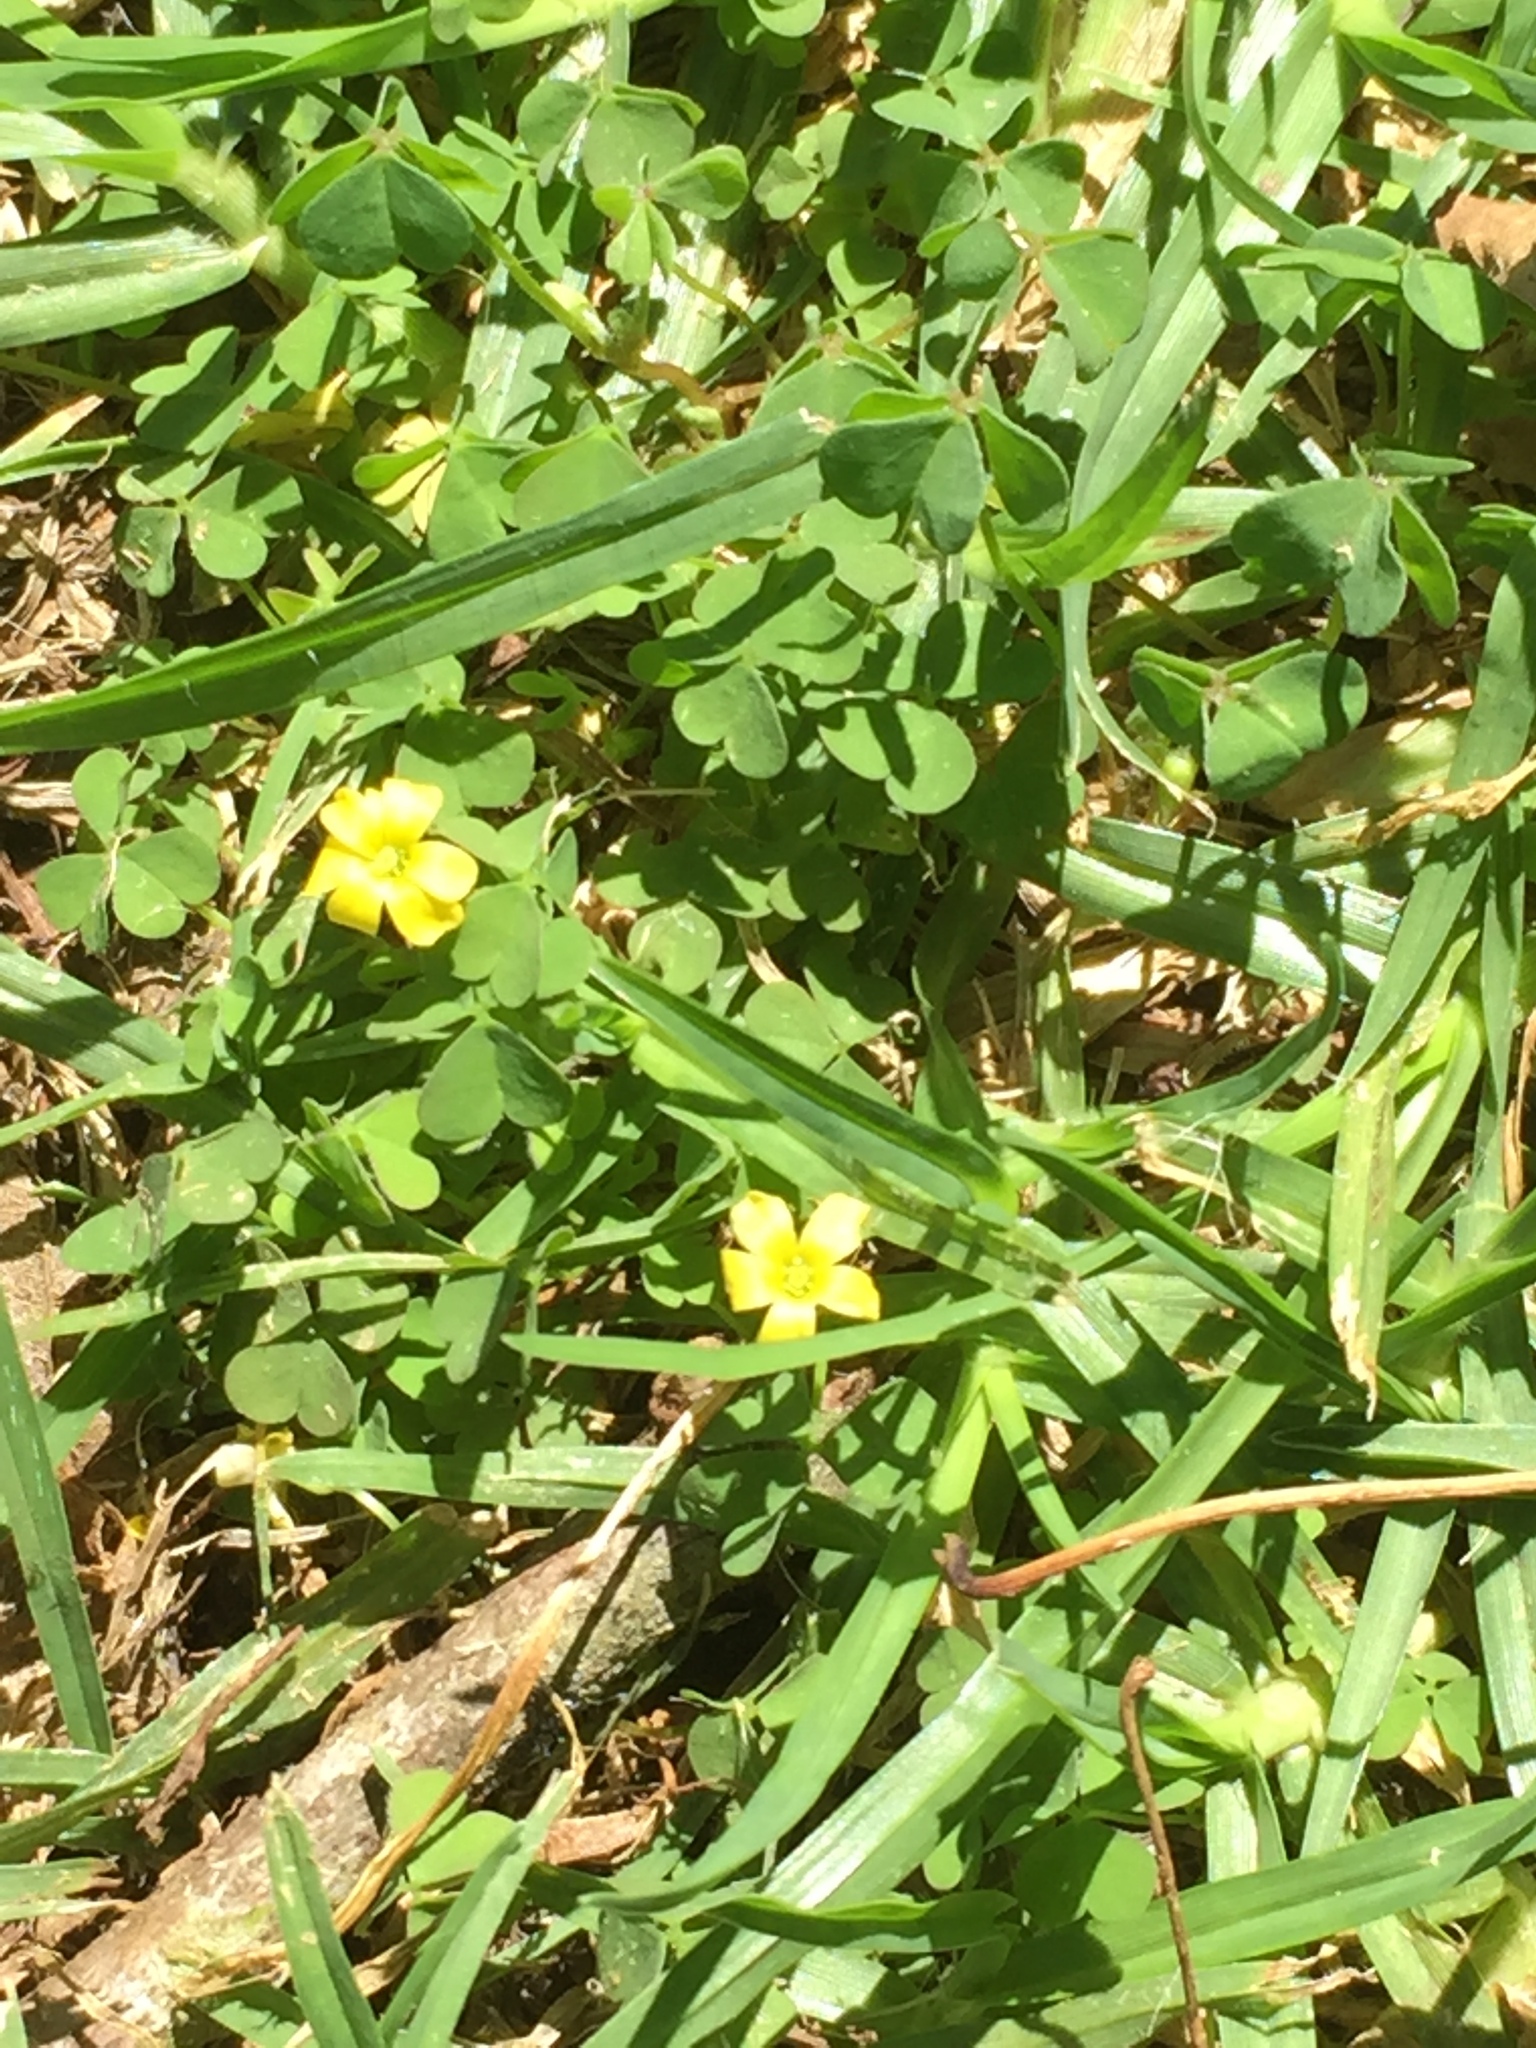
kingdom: Plantae
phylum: Tracheophyta
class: Magnoliopsida
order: Oxalidales
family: Oxalidaceae
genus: Oxalis
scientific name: Oxalis corniculata
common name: Procumbent yellow-sorrel
